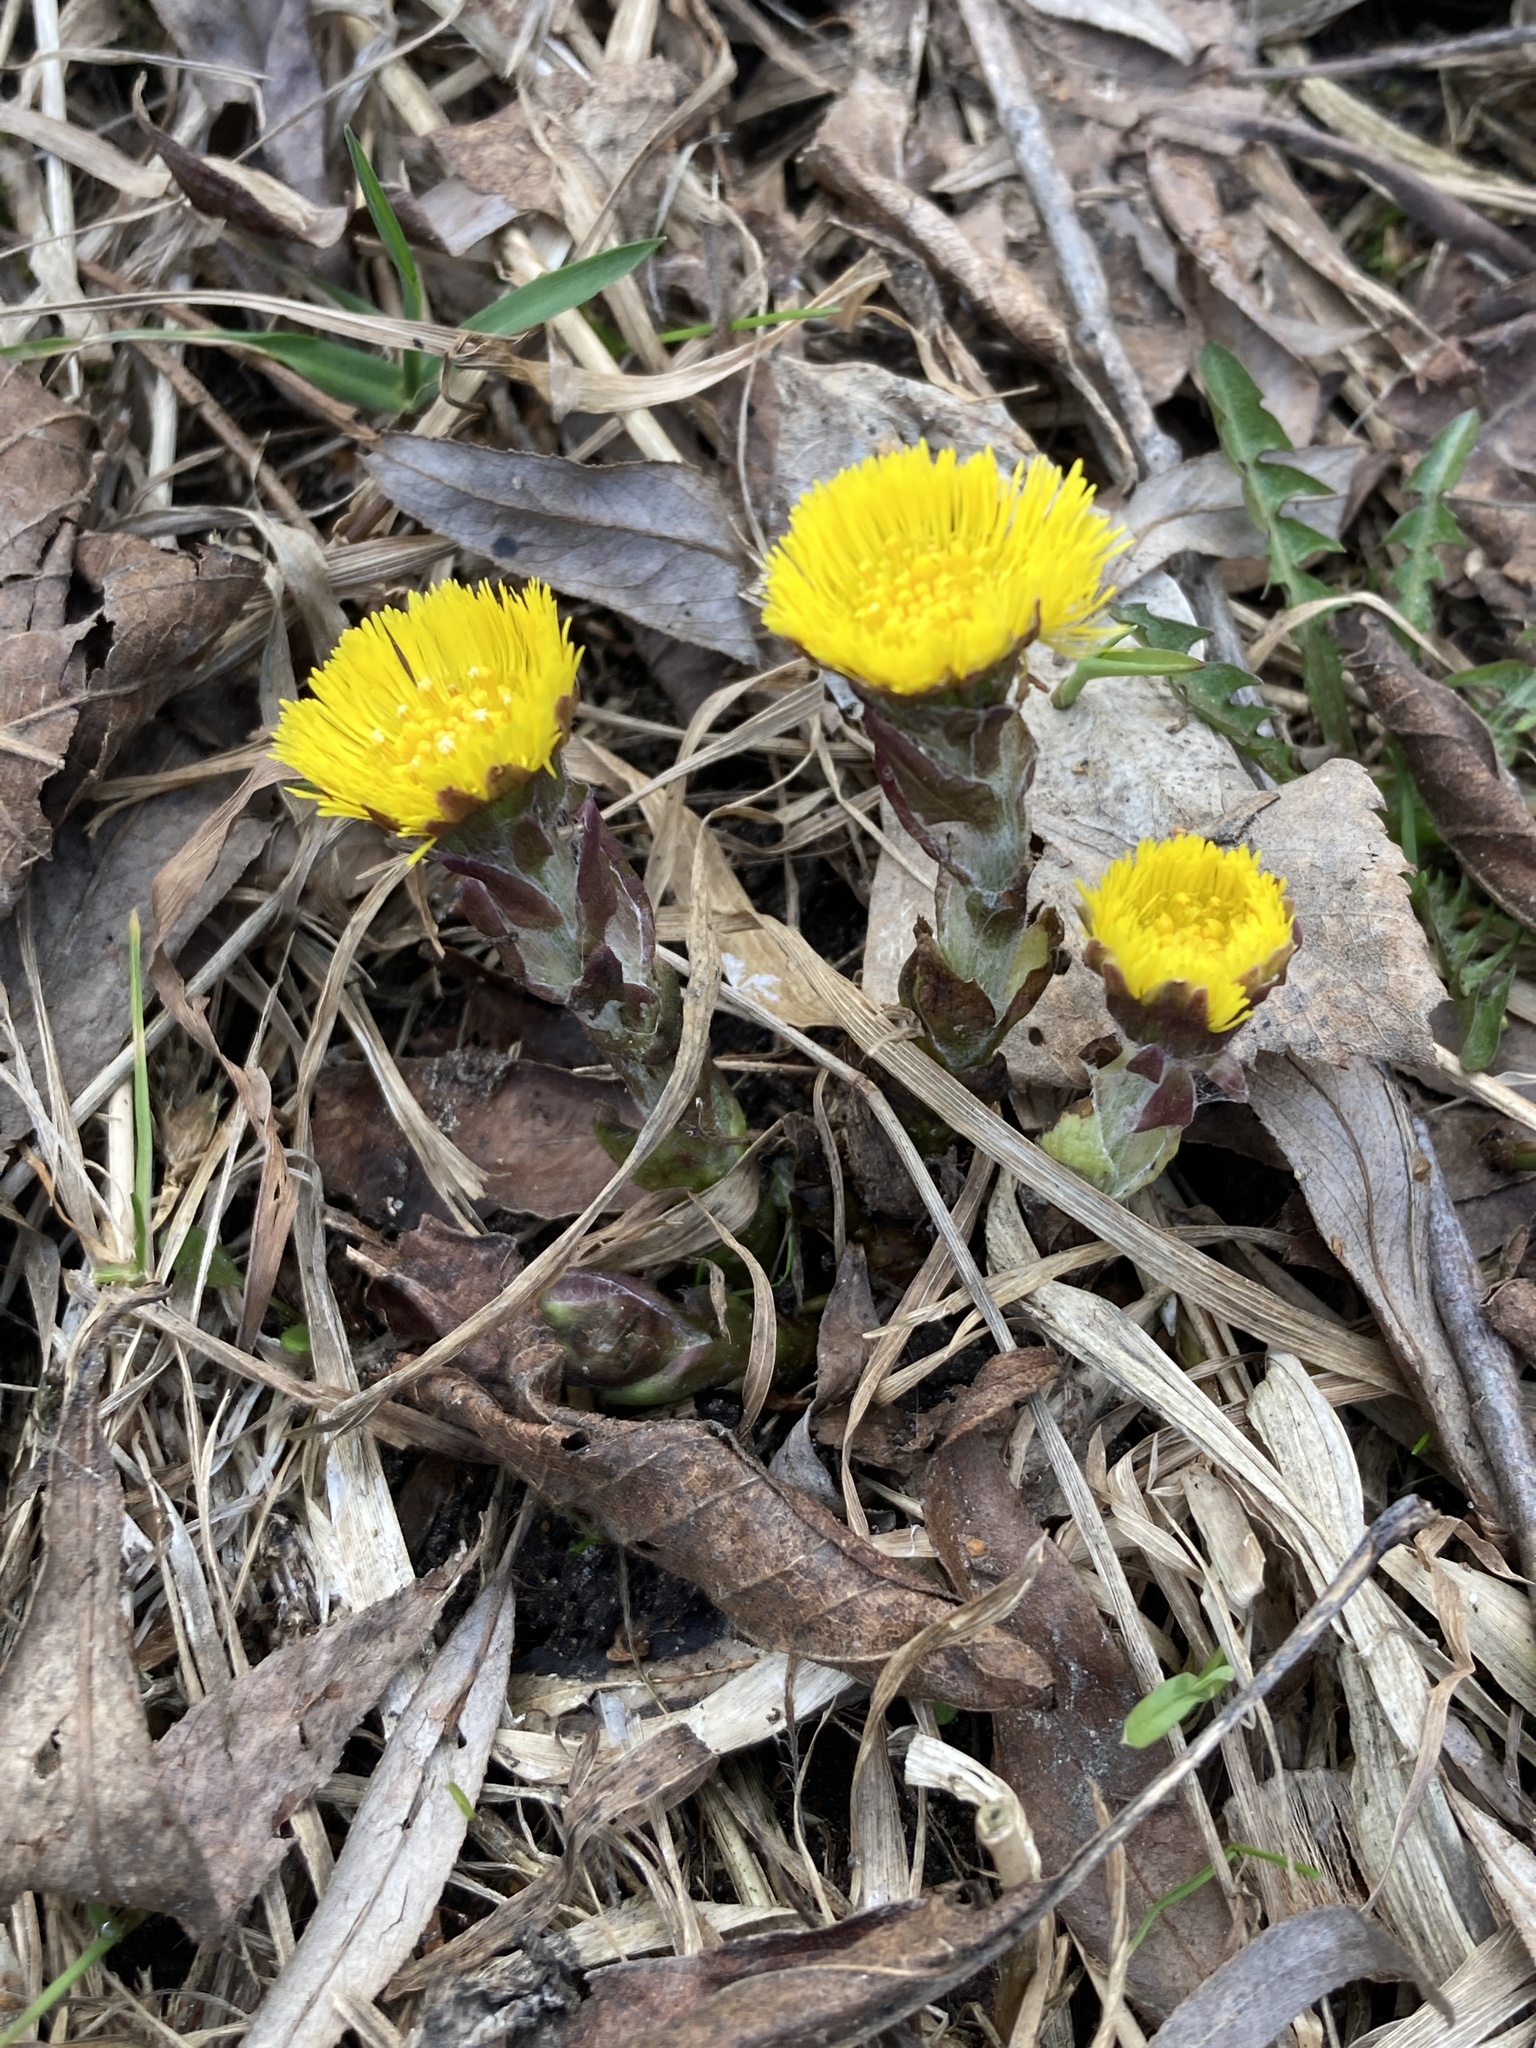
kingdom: Plantae
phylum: Tracheophyta
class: Magnoliopsida
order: Asterales
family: Asteraceae
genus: Tussilago
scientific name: Tussilago farfara
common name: Coltsfoot
